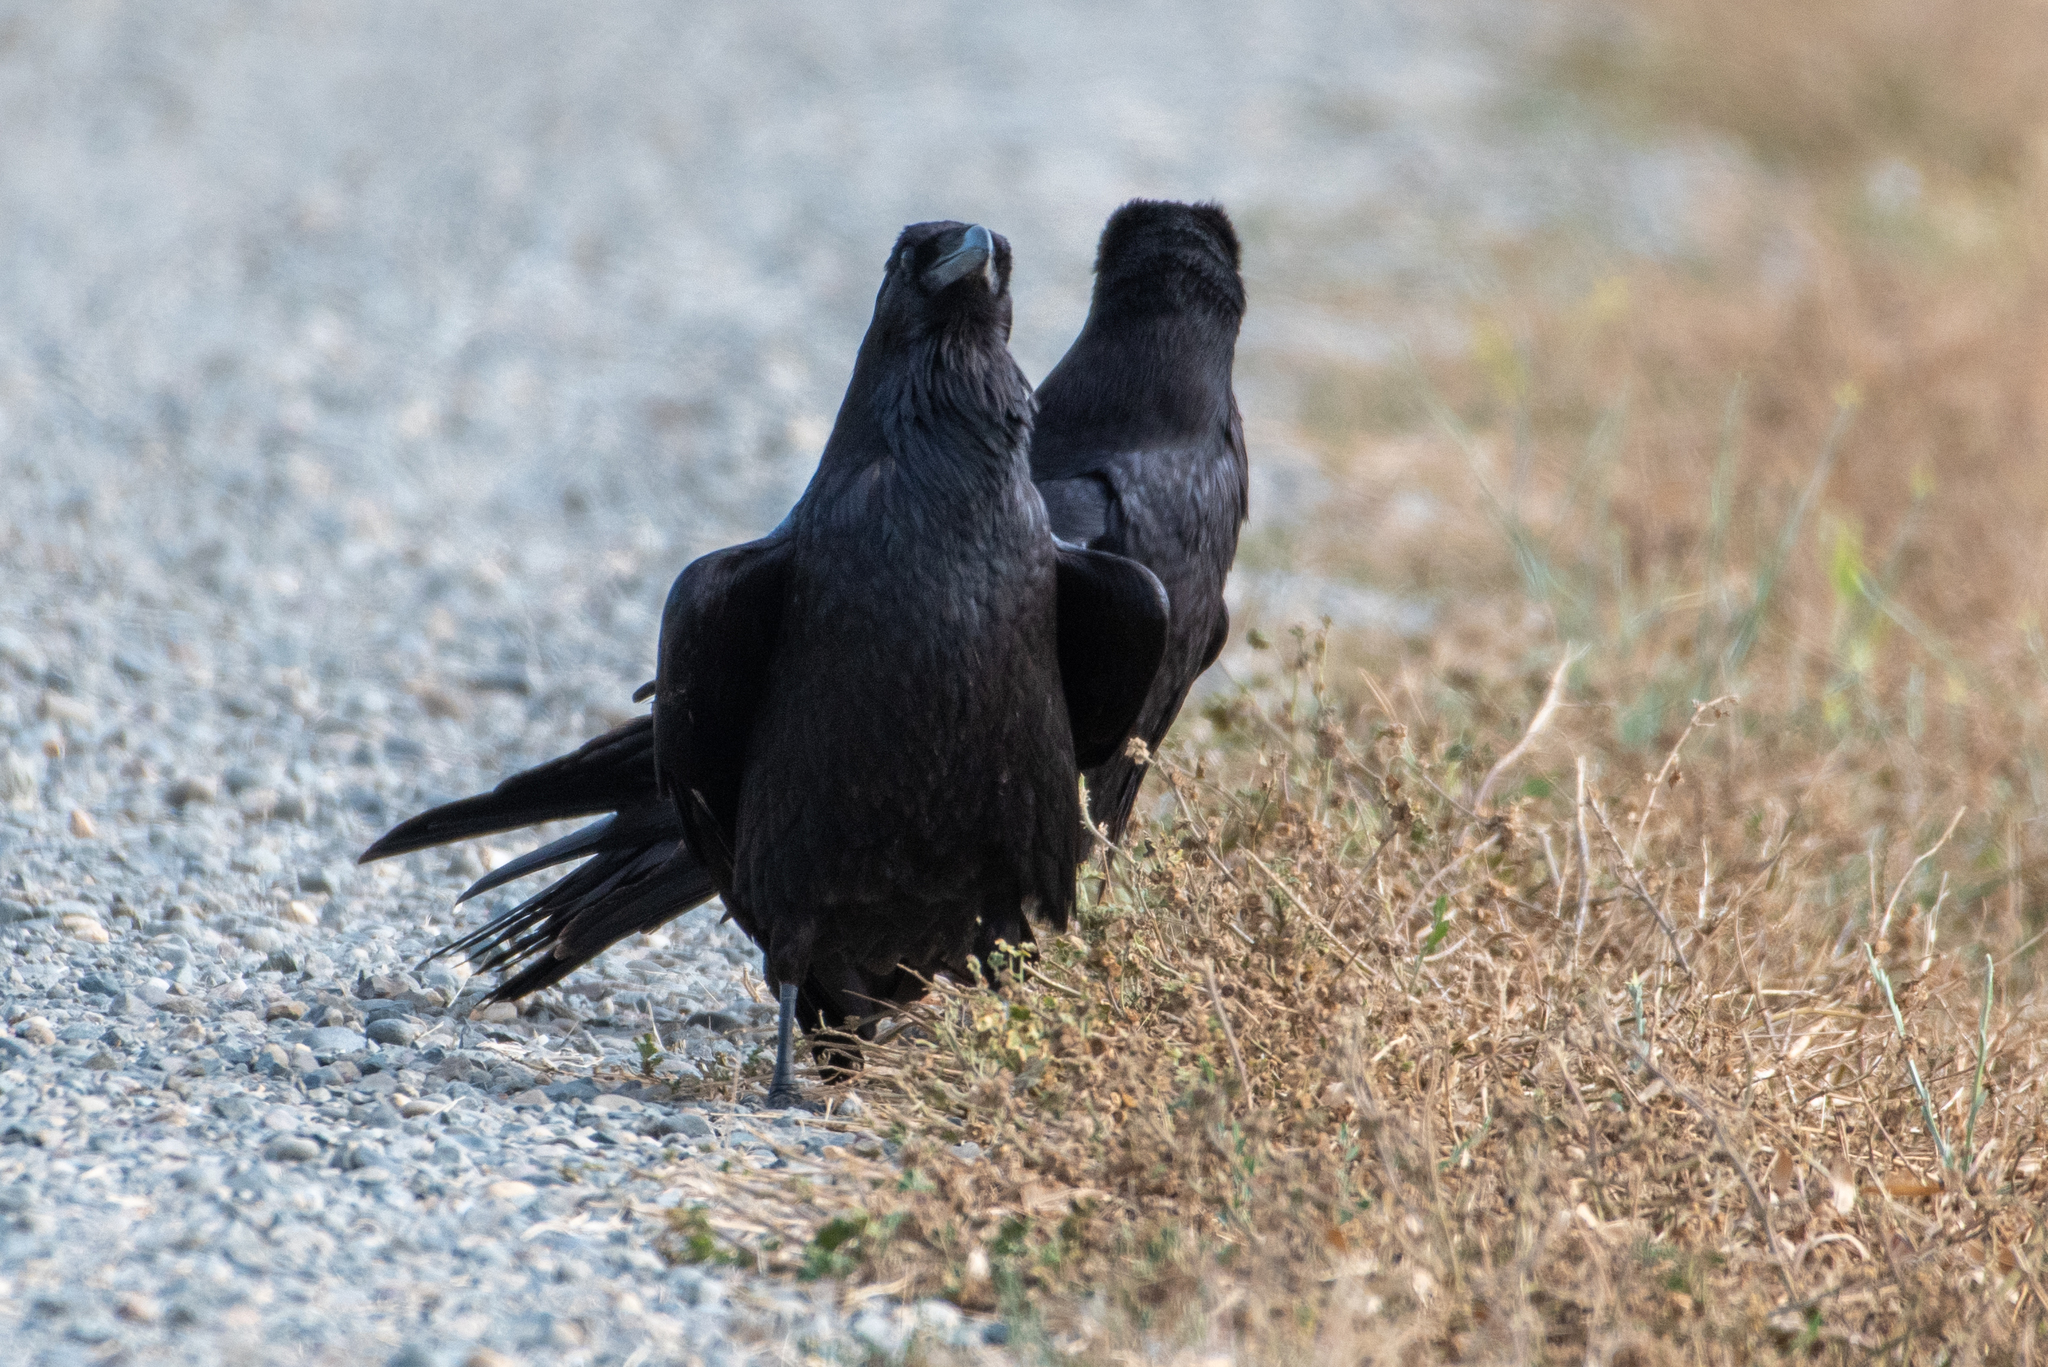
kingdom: Animalia
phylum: Chordata
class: Aves
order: Passeriformes
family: Corvidae
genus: Corvus
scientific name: Corvus corax
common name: Common raven
